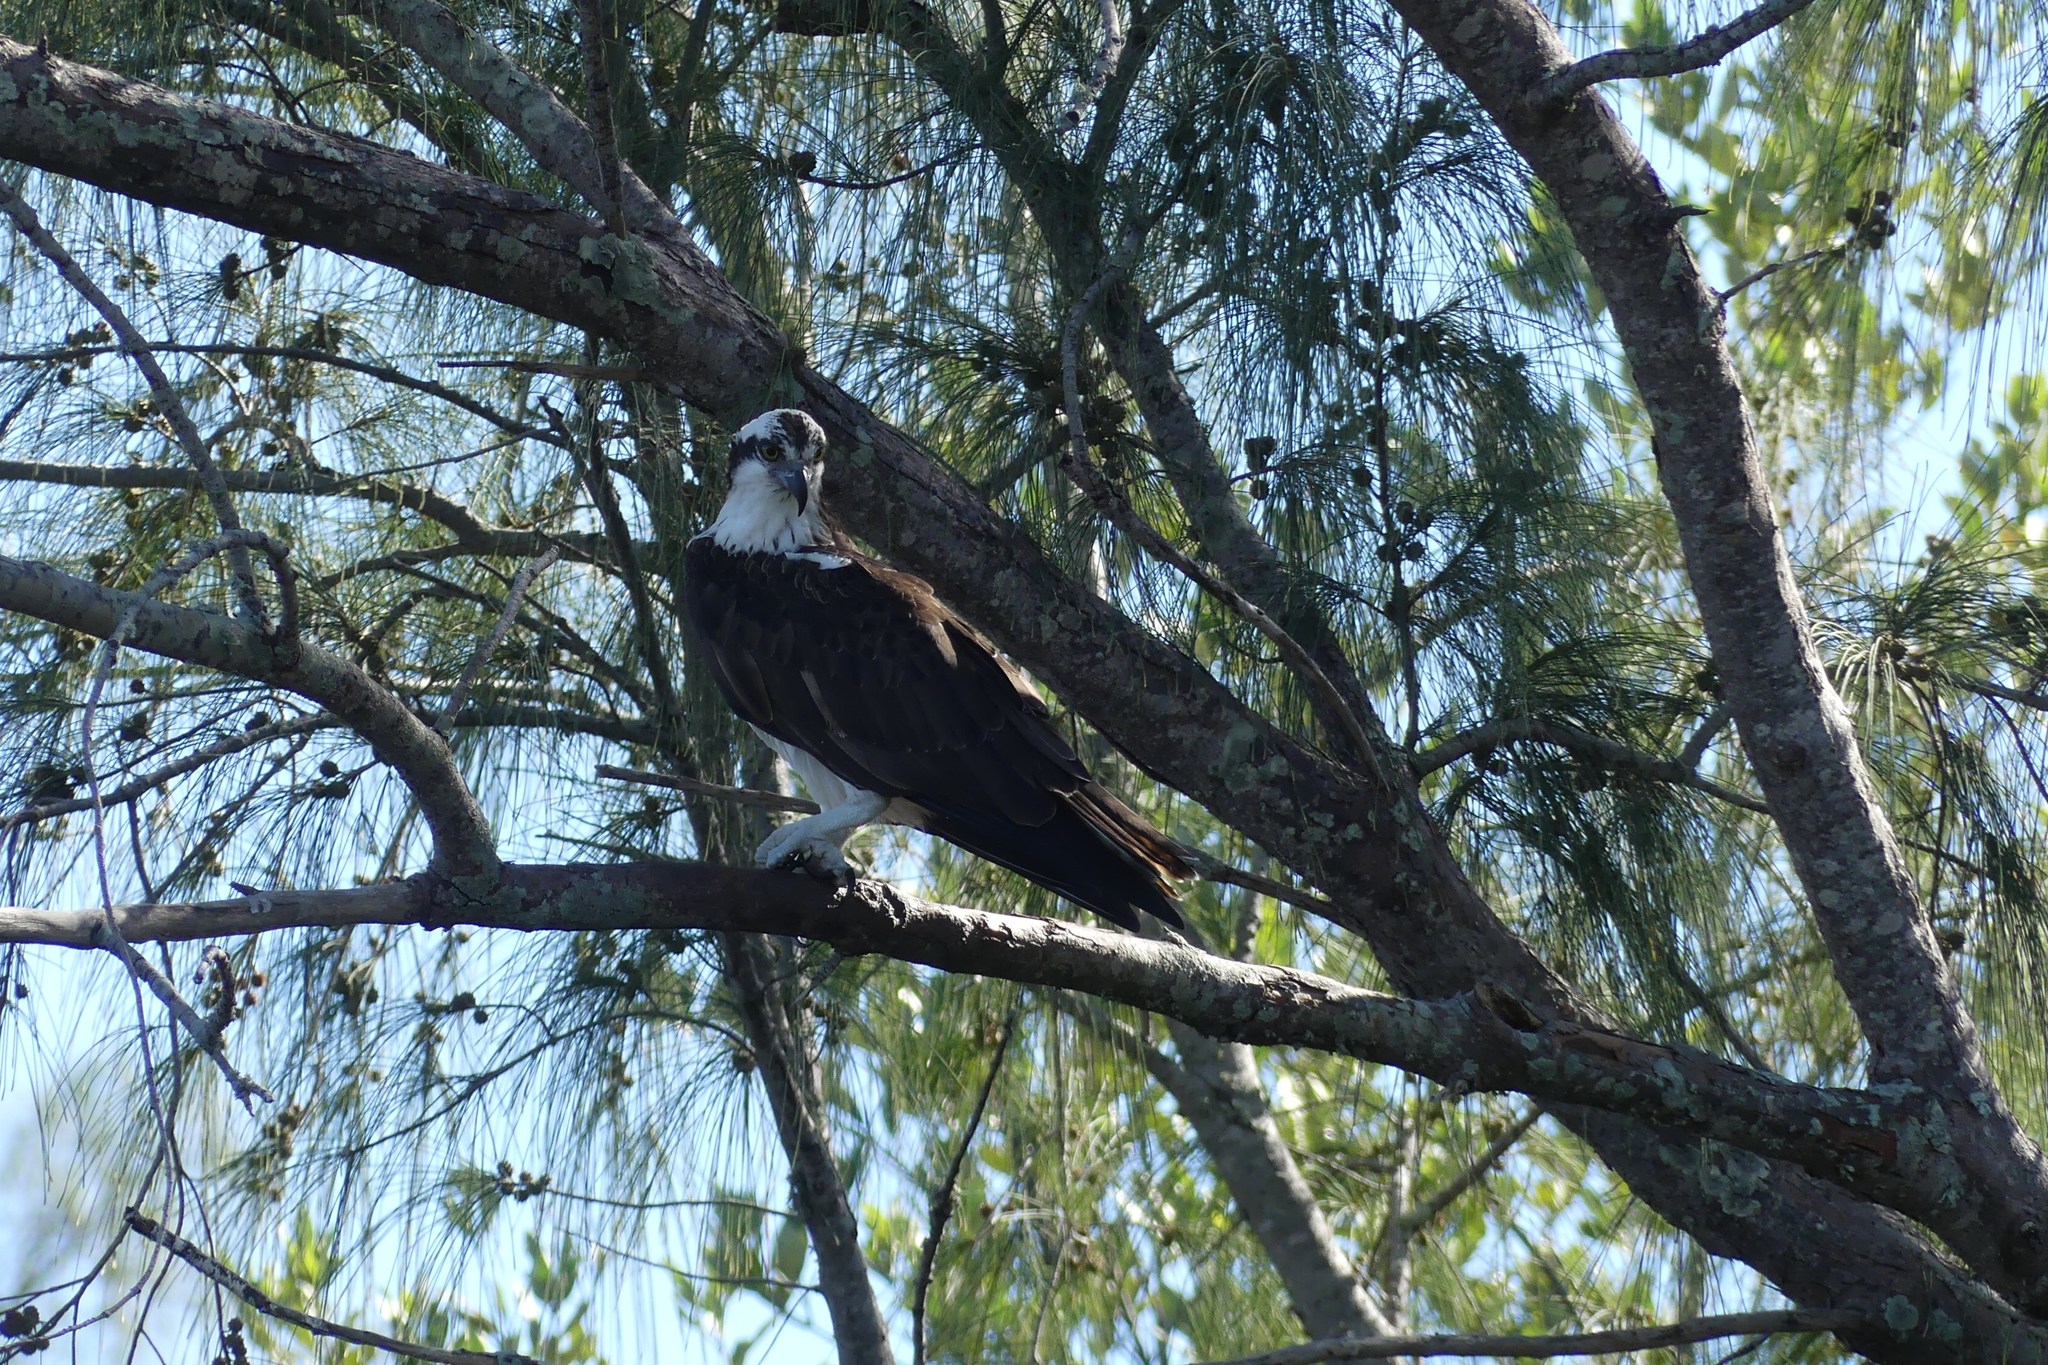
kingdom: Animalia
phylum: Chordata
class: Aves
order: Accipitriformes
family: Pandionidae
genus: Pandion
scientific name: Pandion haliaetus
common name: Osprey
